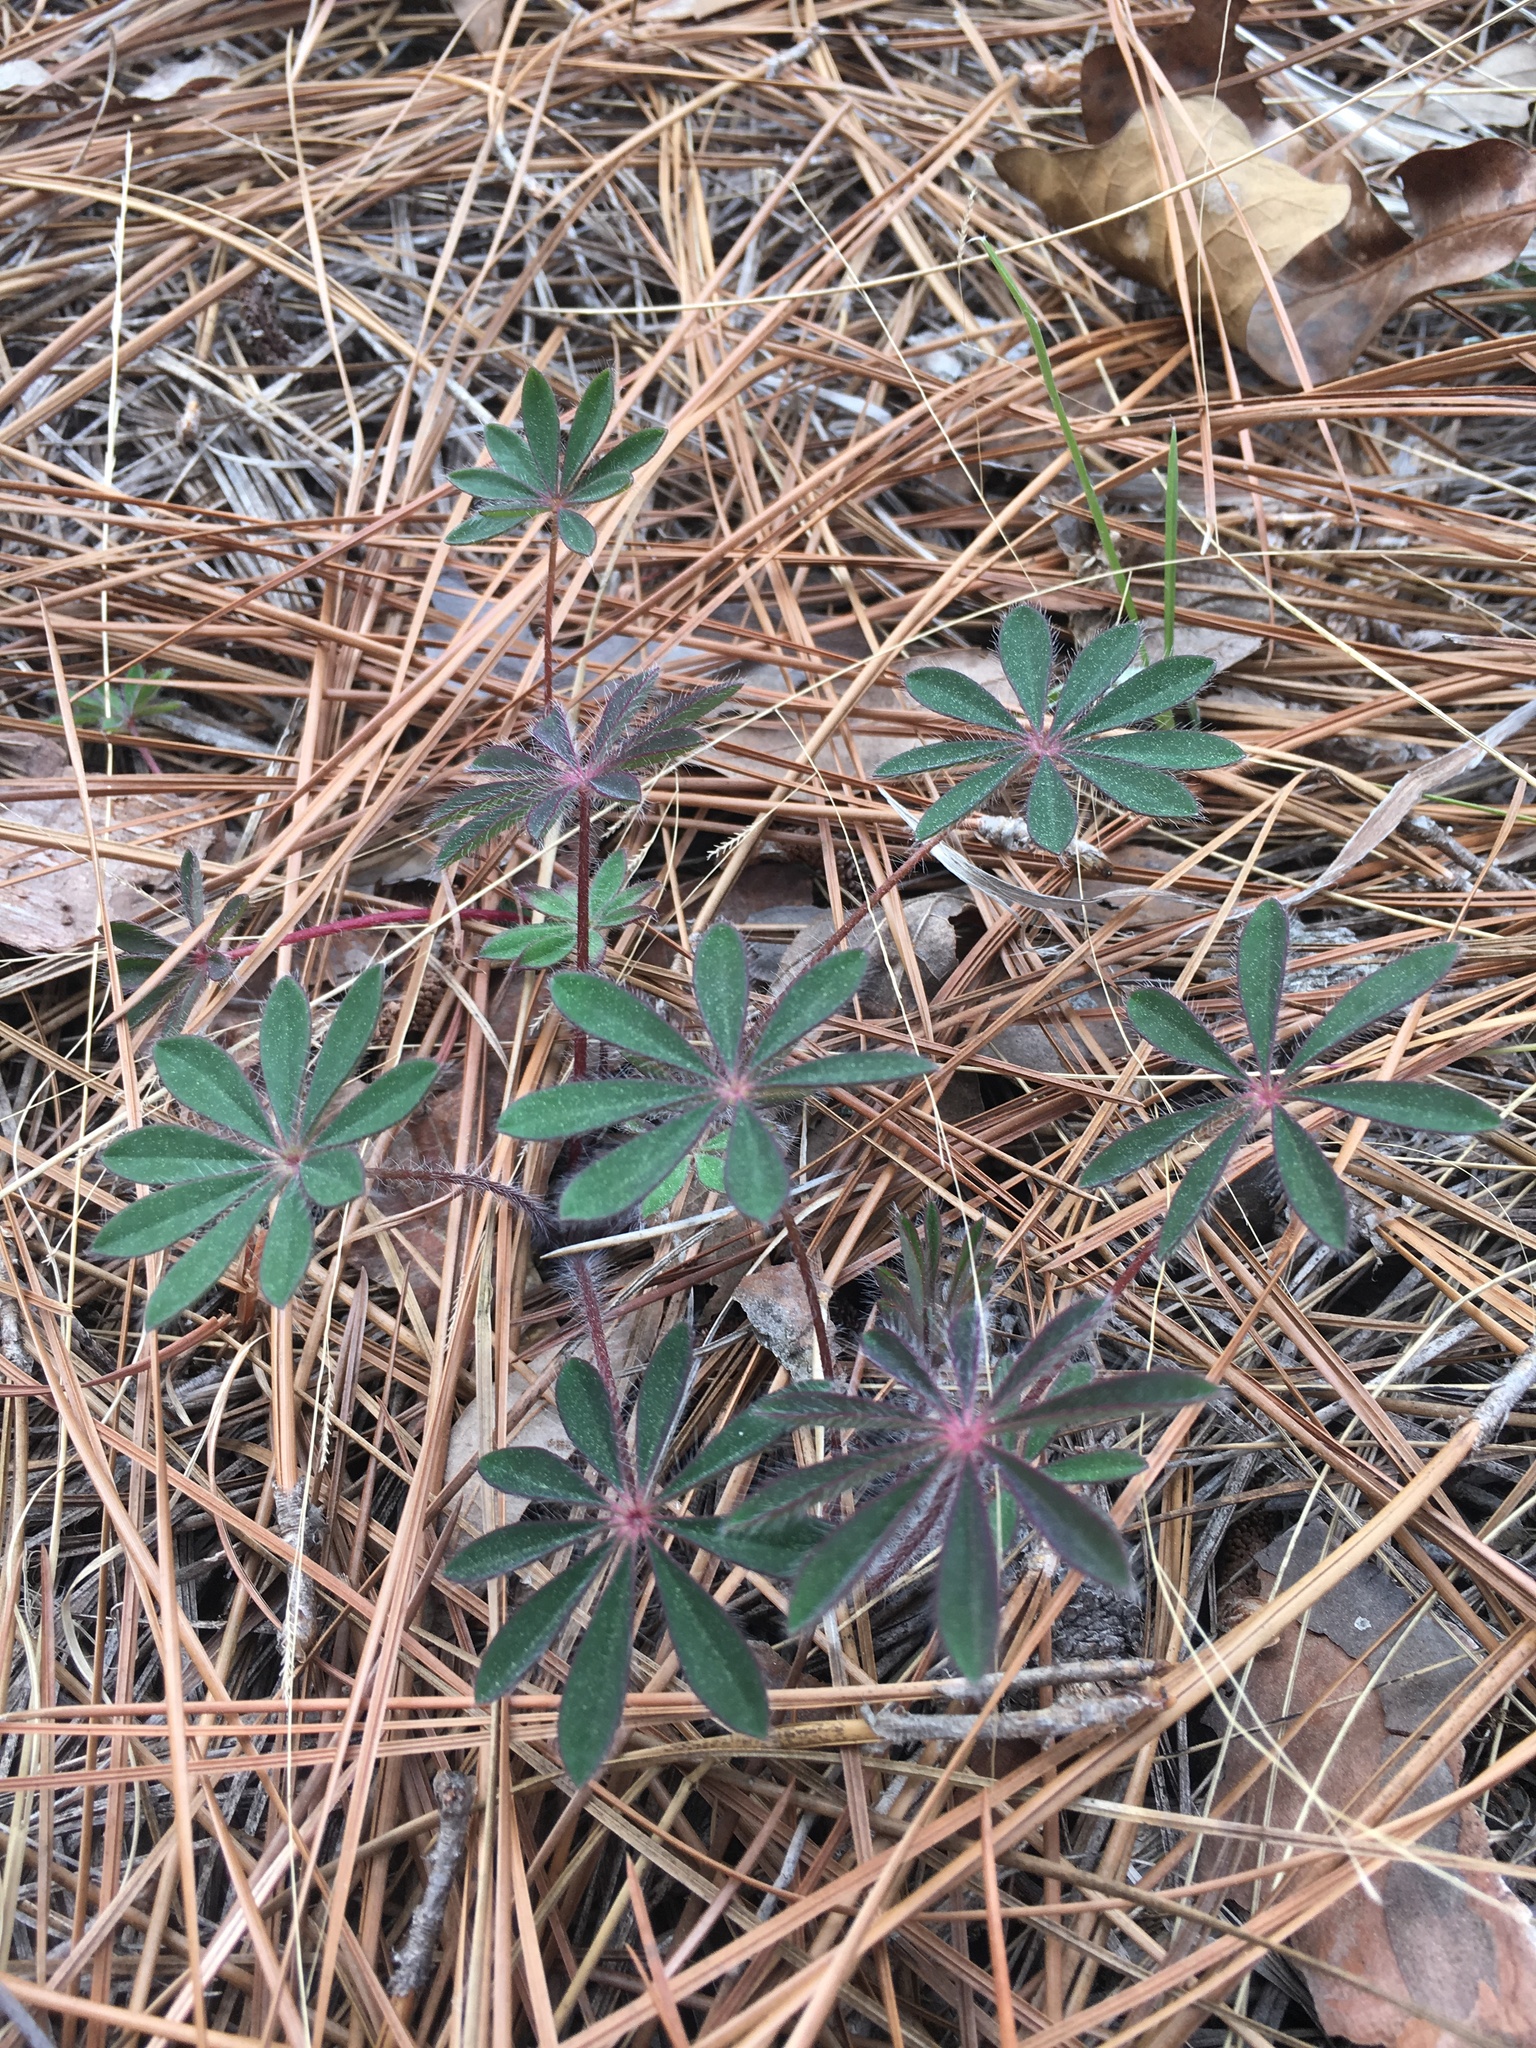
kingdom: Plantae
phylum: Tracheophyta
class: Magnoliopsida
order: Fabales
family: Fabaceae
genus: Lupinus
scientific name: Lupinus perennis
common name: Sundial lupine
